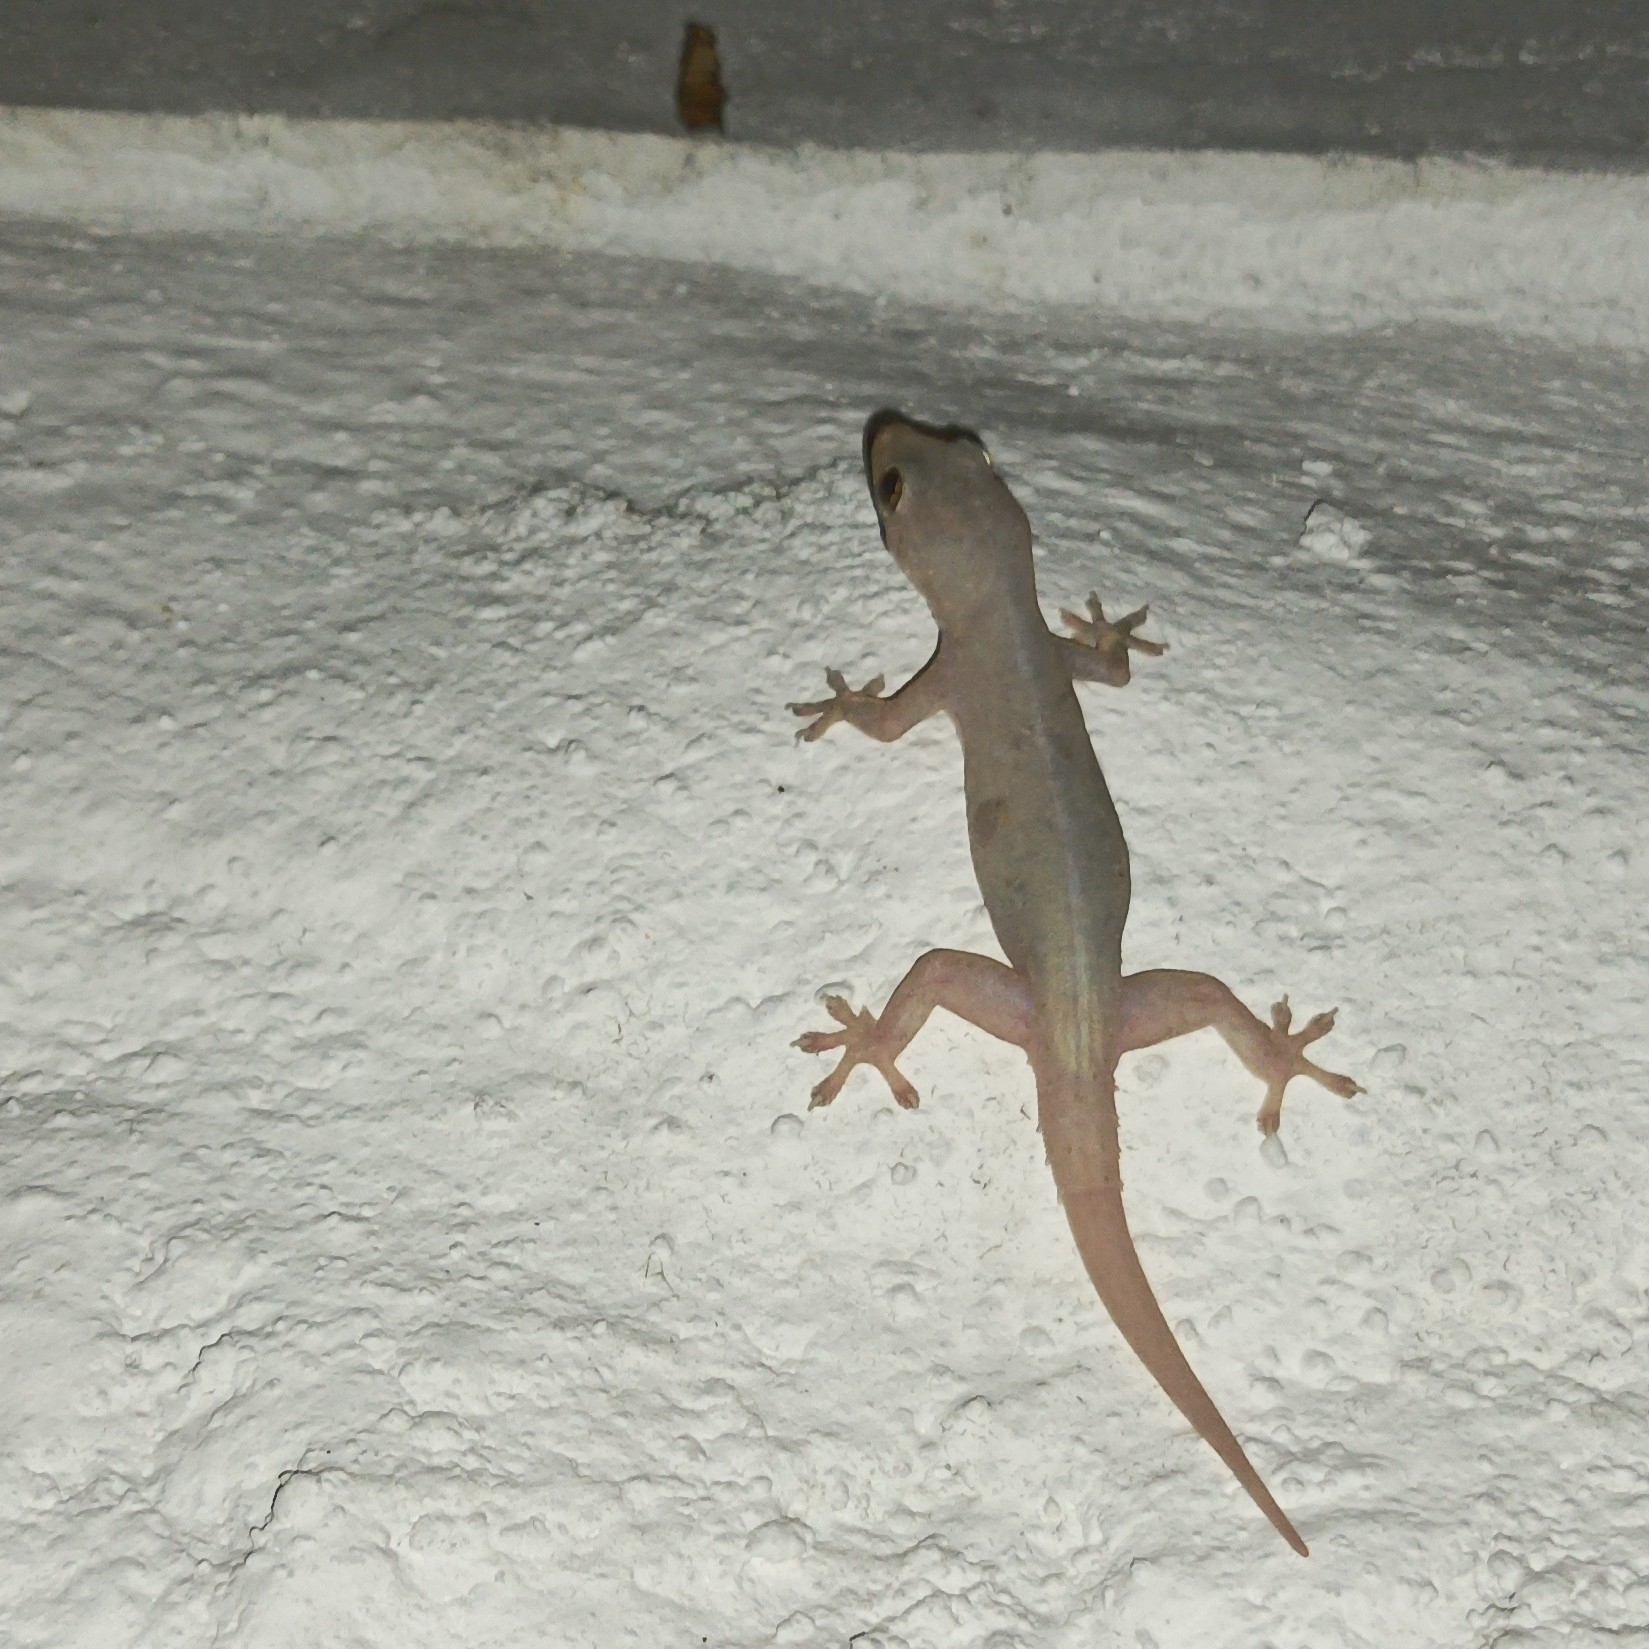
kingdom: Animalia
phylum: Chordata
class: Squamata
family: Gekkonidae
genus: Hemidactylus
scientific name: Hemidactylus frenatus
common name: Common house gecko
